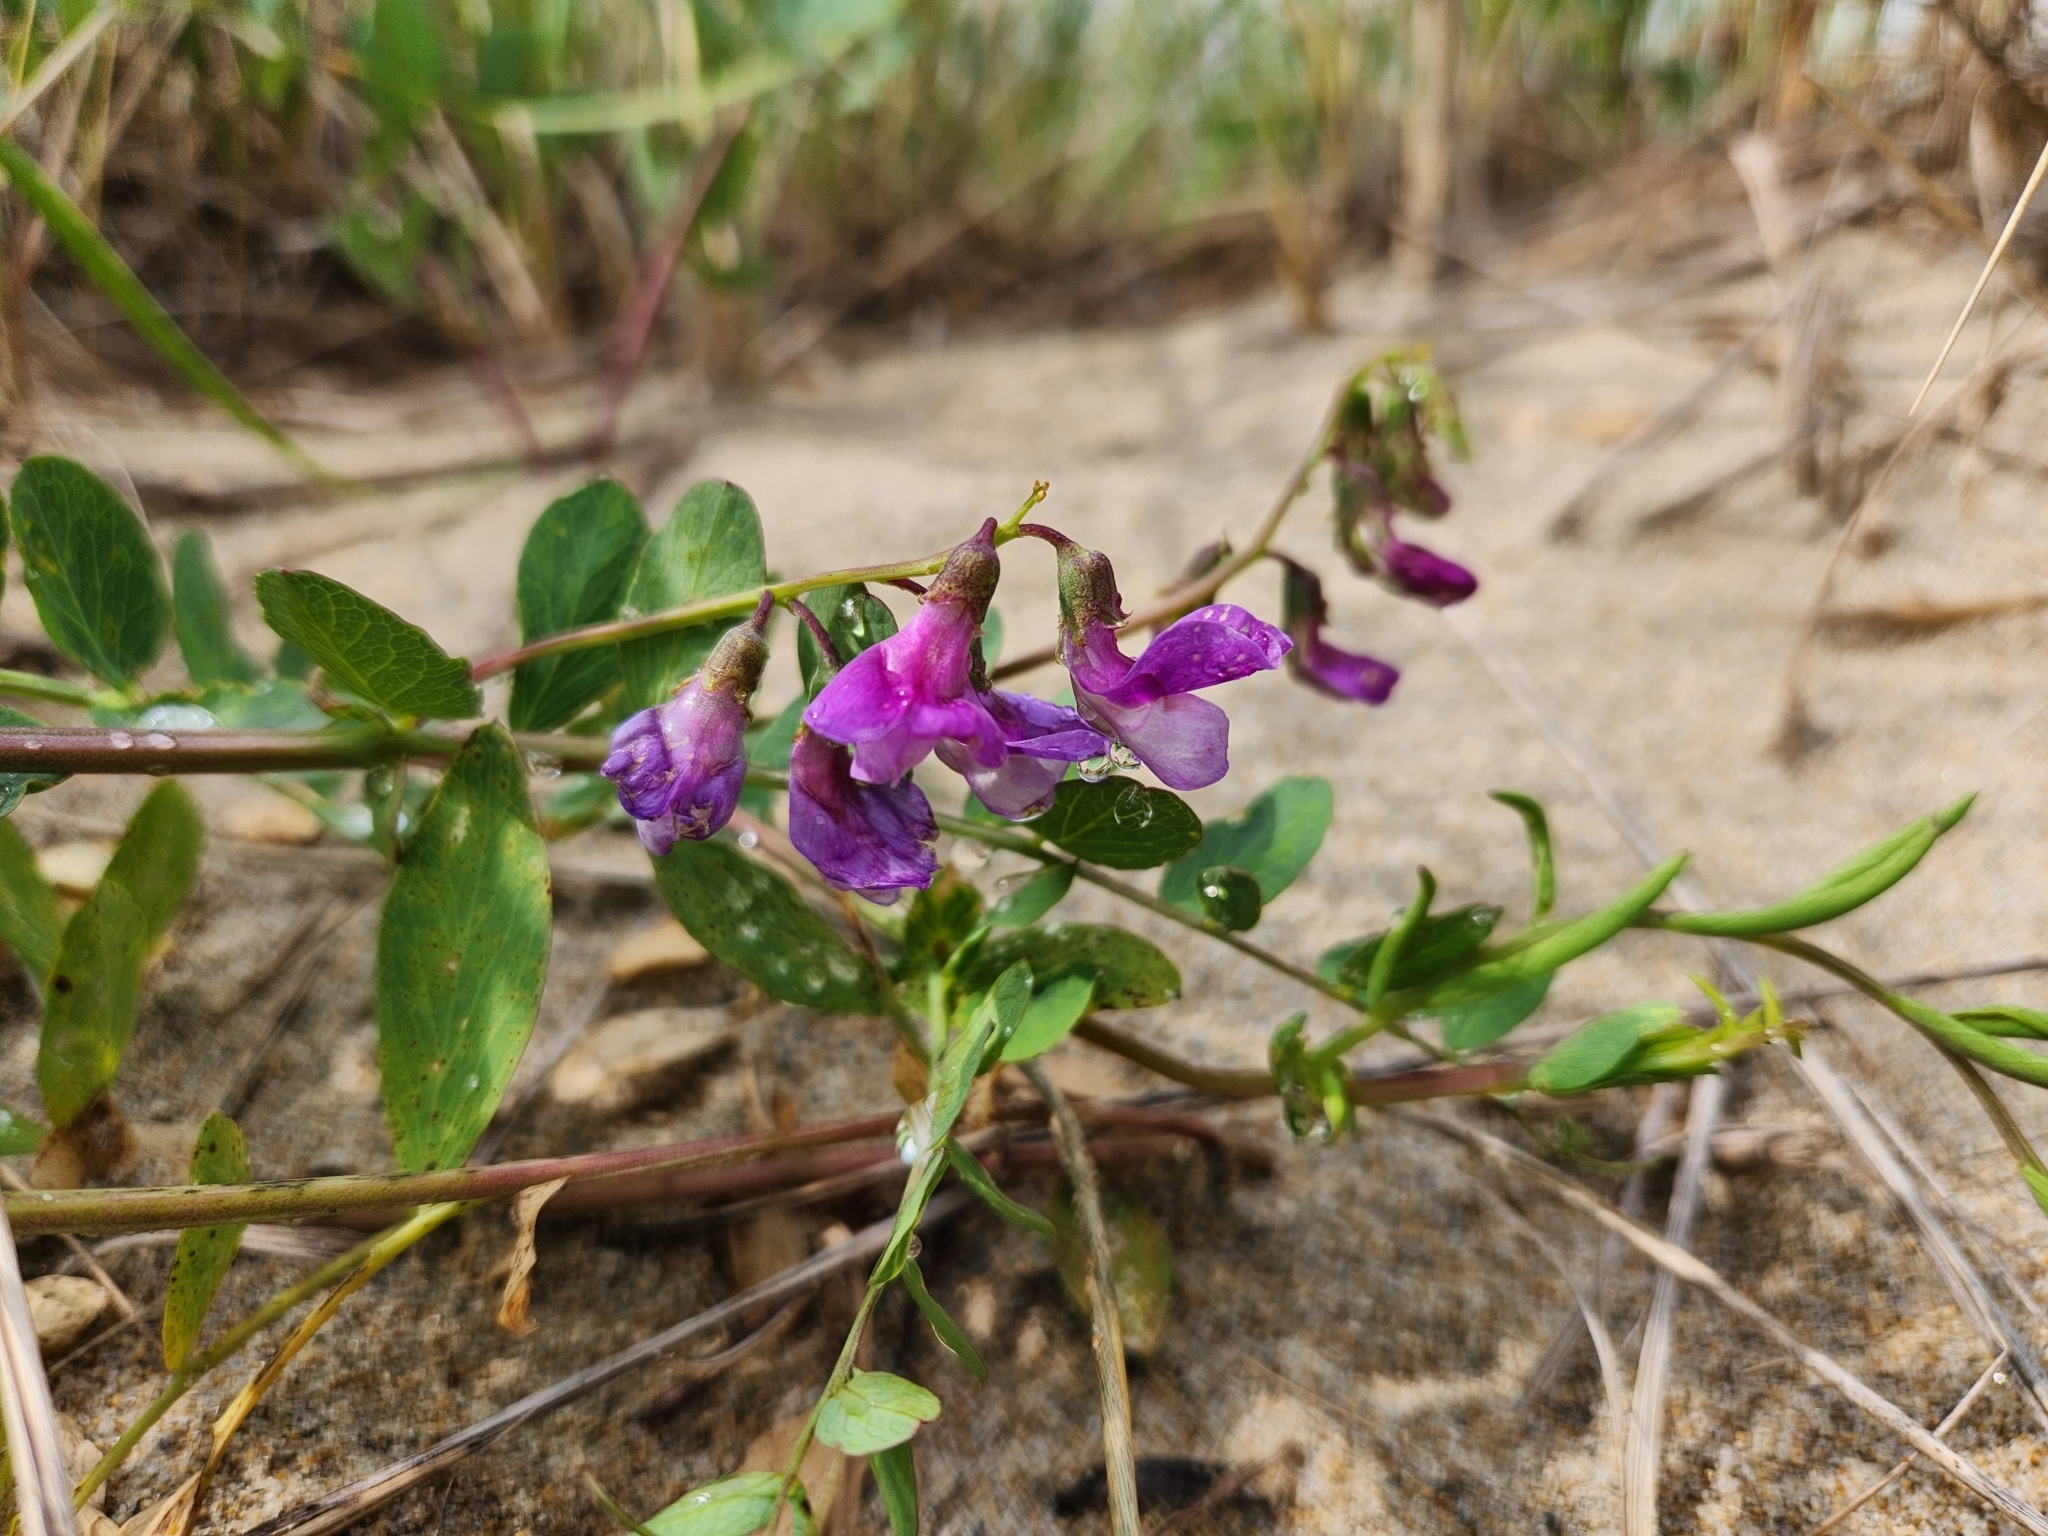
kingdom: Plantae
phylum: Tracheophyta
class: Magnoliopsida
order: Fabales
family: Fabaceae
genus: Lathyrus
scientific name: Lathyrus japonicus
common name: Sea pea
